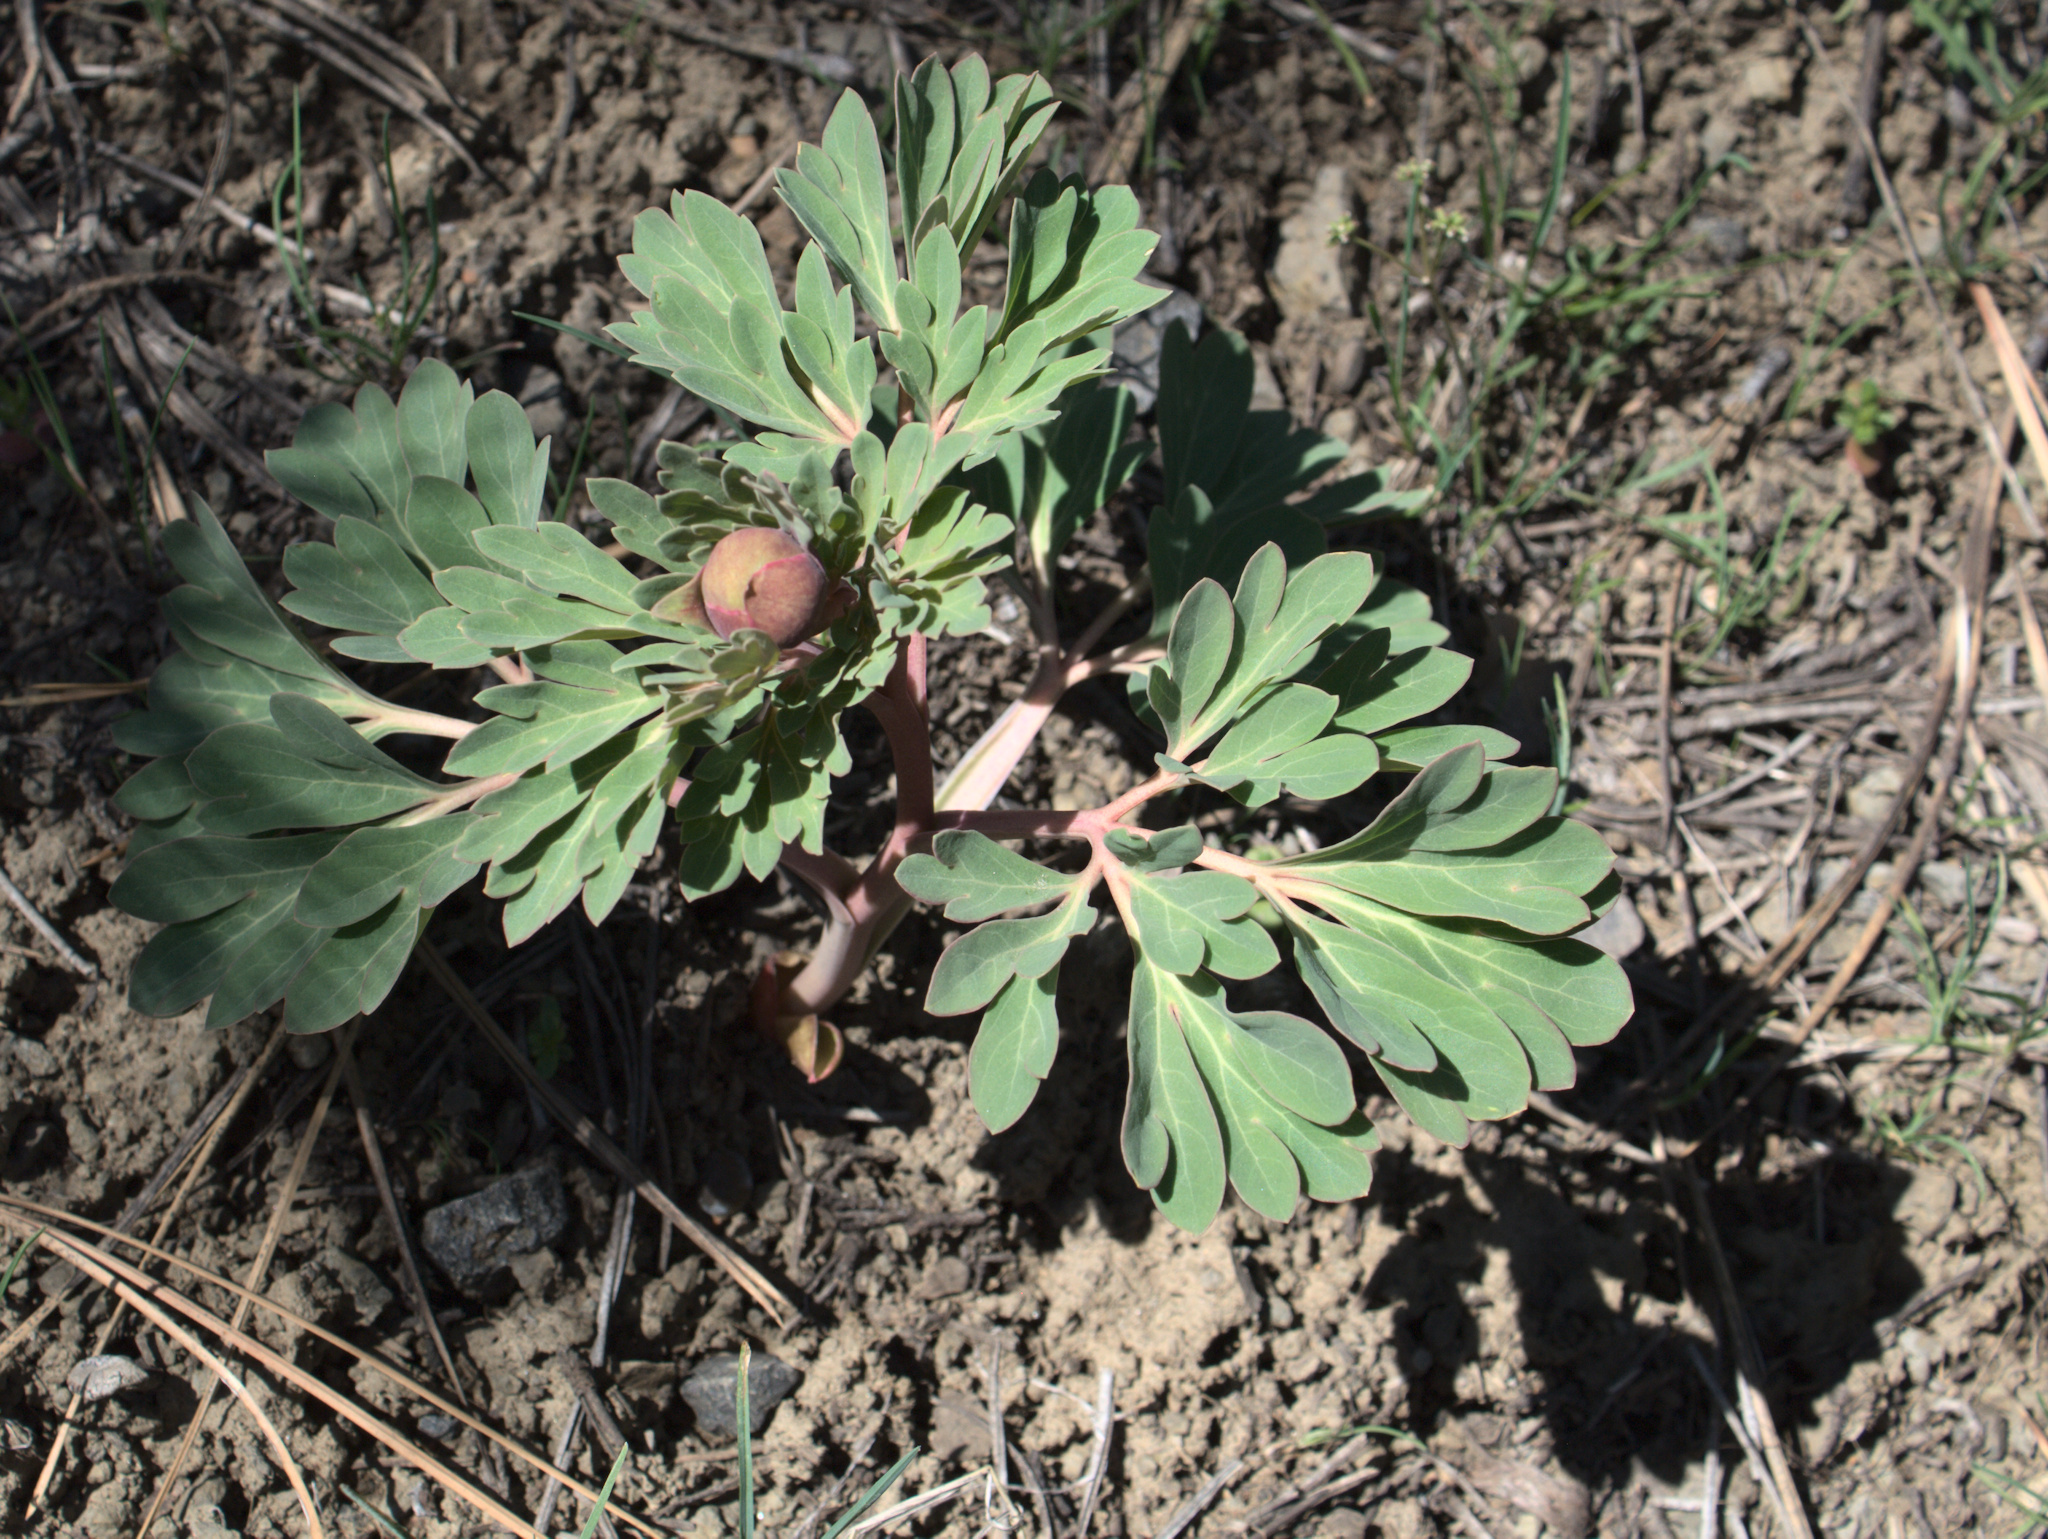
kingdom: Plantae
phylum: Tracheophyta
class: Magnoliopsida
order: Saxifragales
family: Paeoniaceae
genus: Paeonia
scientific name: Paeonia brownii
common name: Brown's peony
